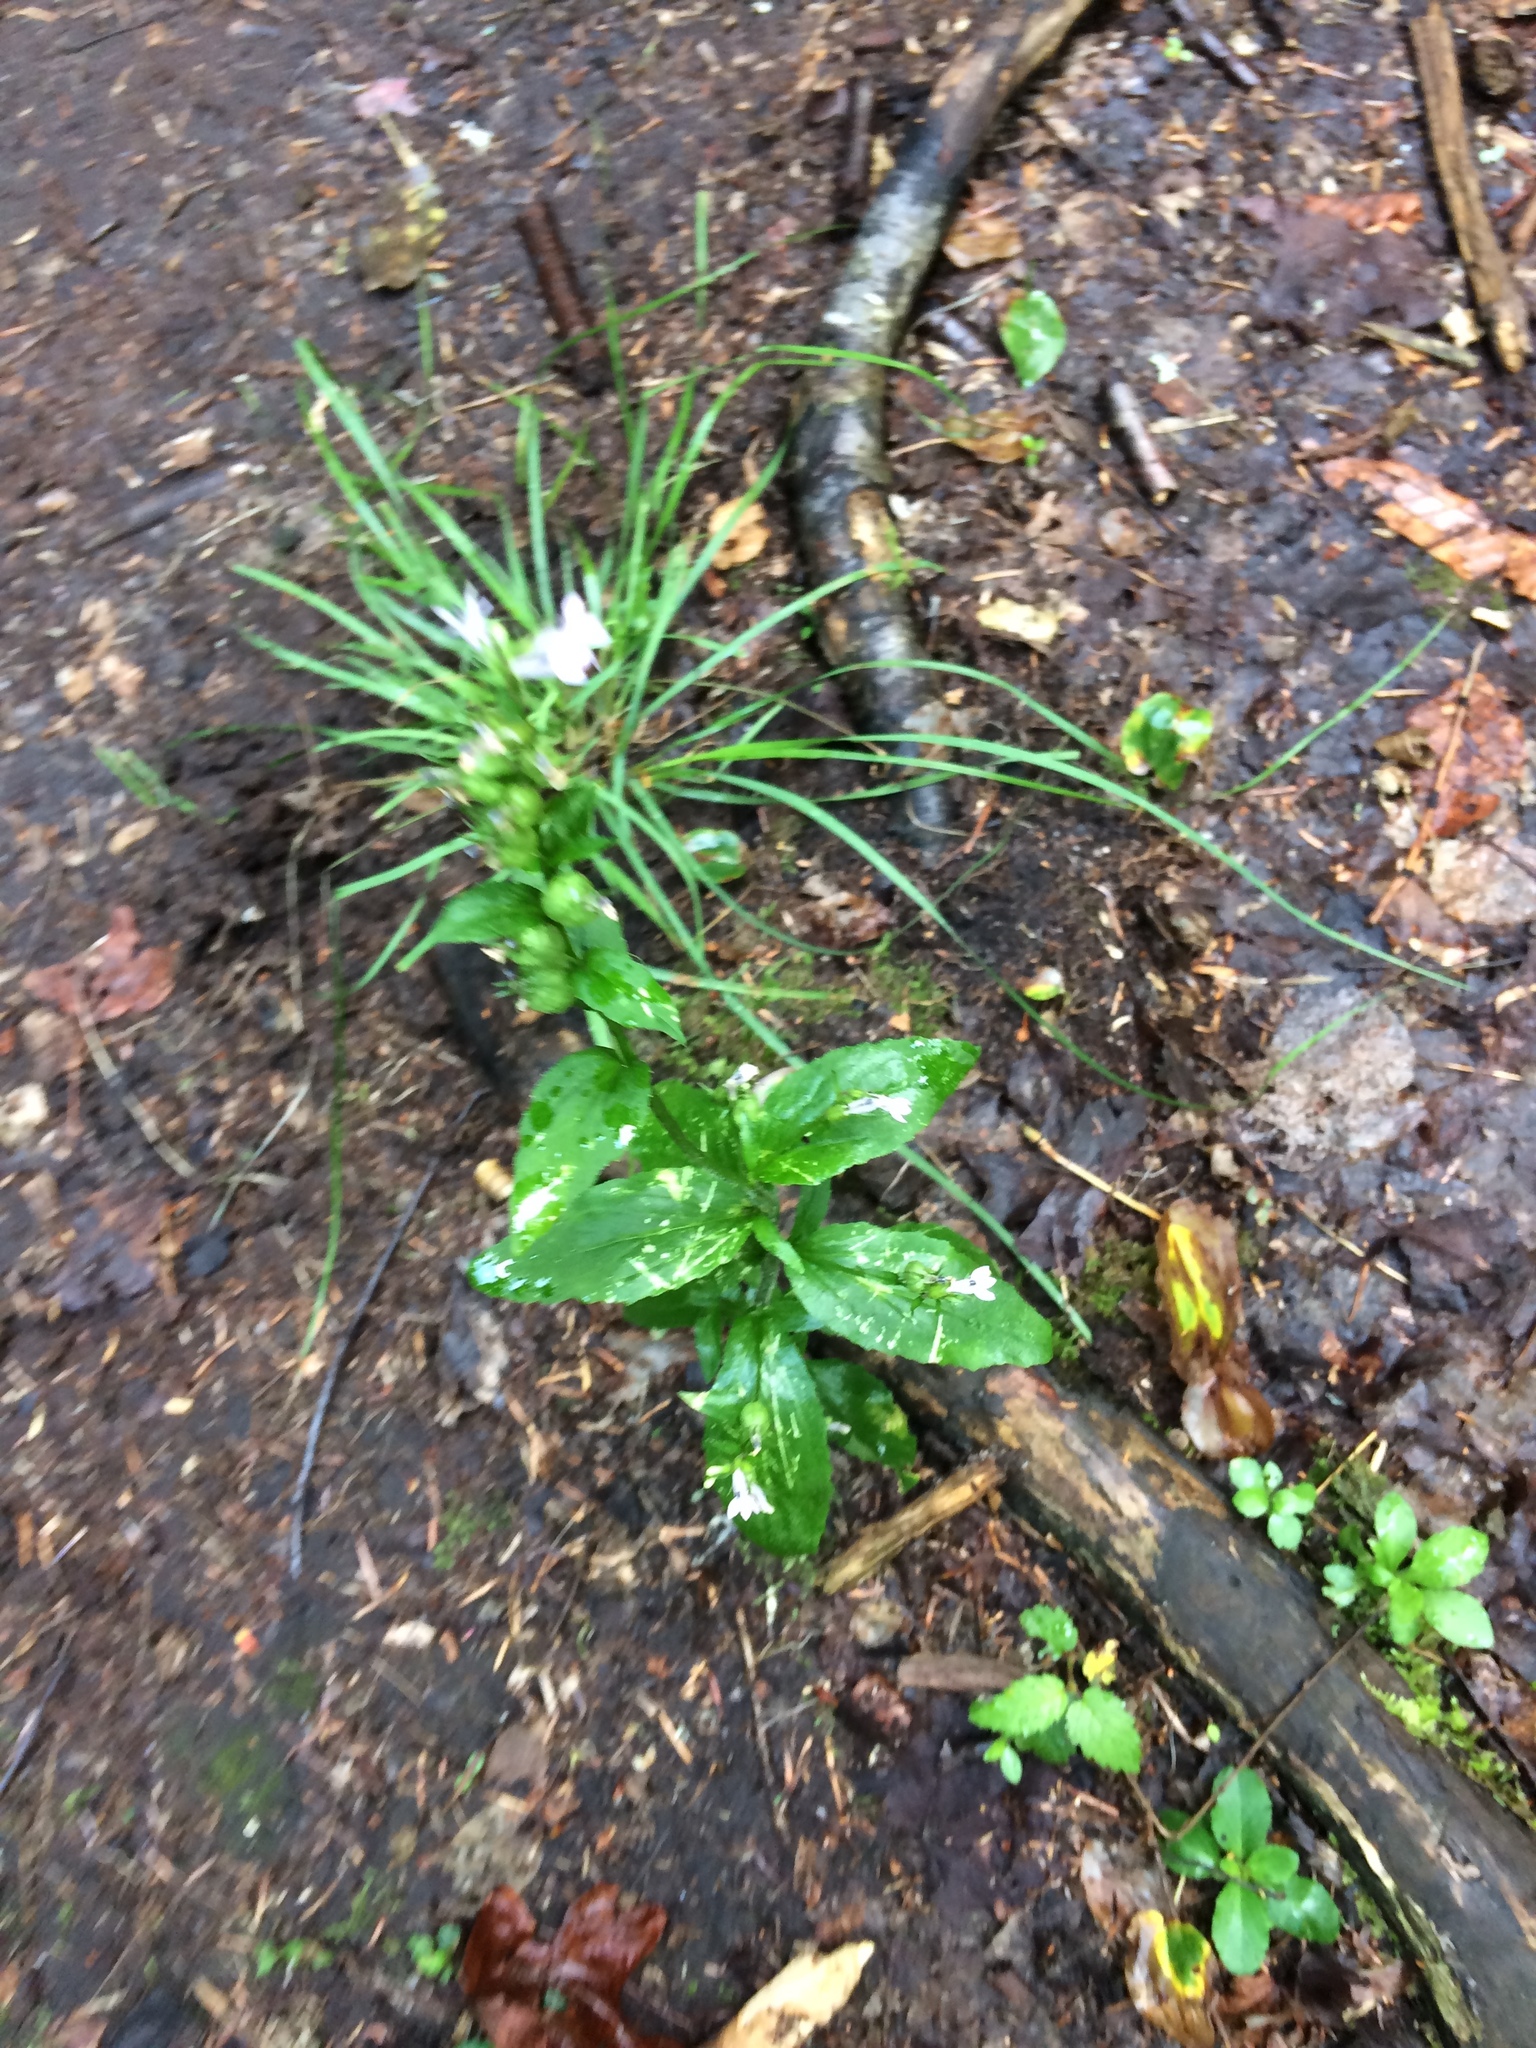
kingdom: Plantae
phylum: Tracheophyta
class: Magnoliopsida
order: Asterales
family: Campanulaceae
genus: Lobelia
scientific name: Lobelia inflata
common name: Indian tobacco
